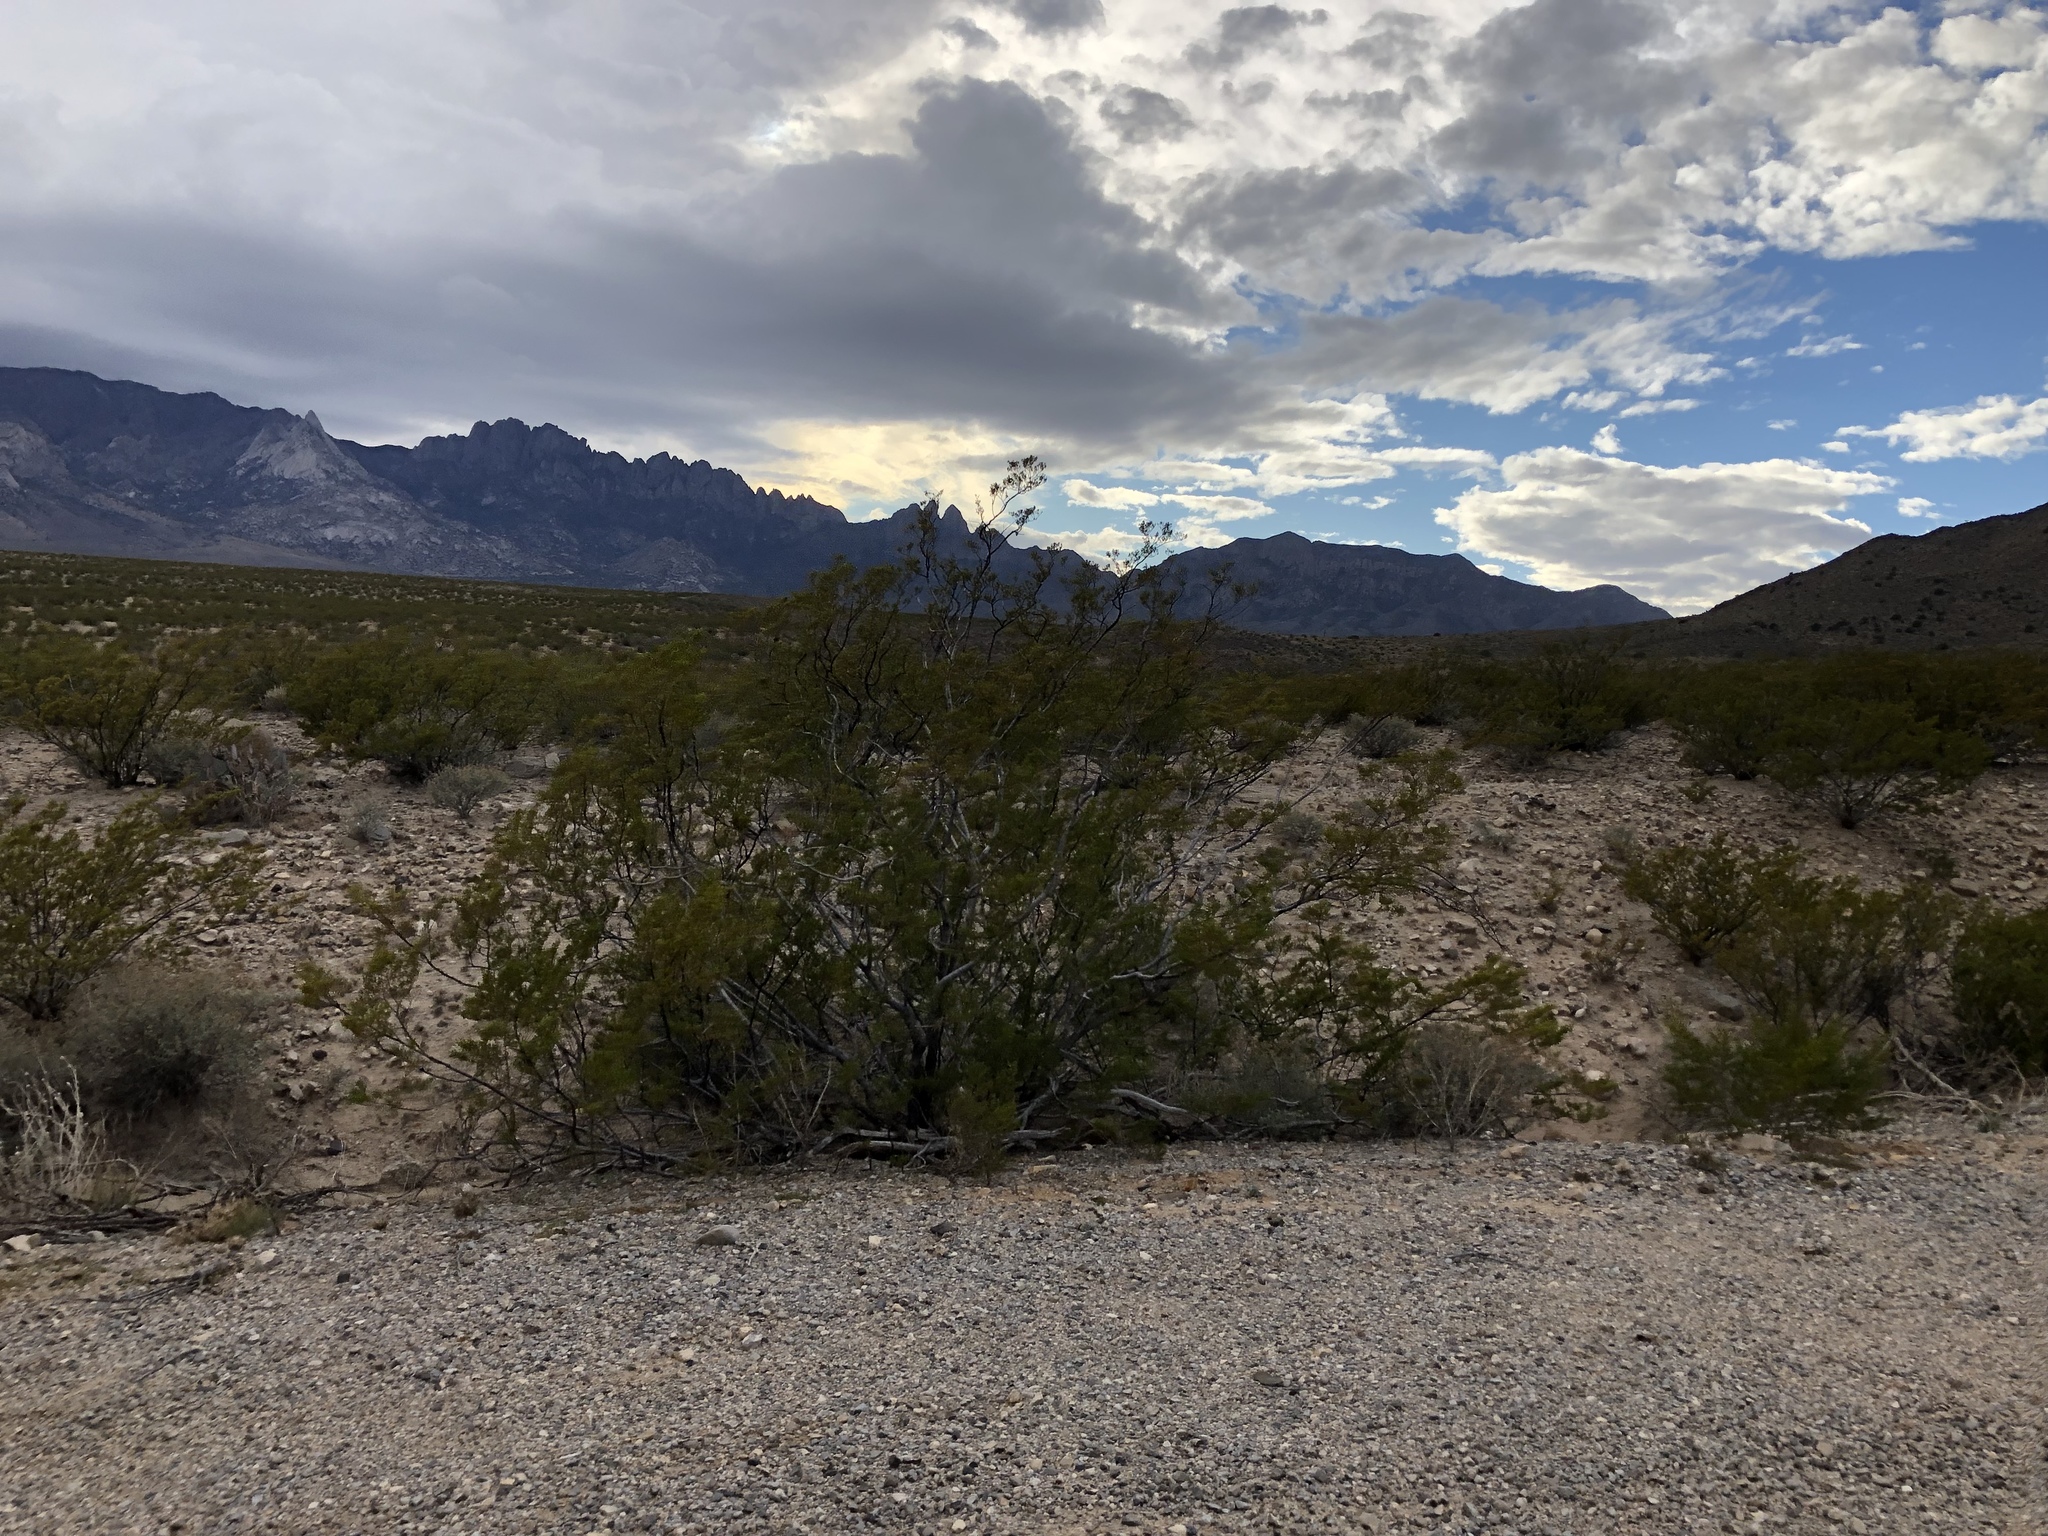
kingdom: Plantae
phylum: Tracheophyta
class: Magnoliopsida
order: Zygophyllales
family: Zygophyllaceae
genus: Larrea
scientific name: Larrea tridentata
